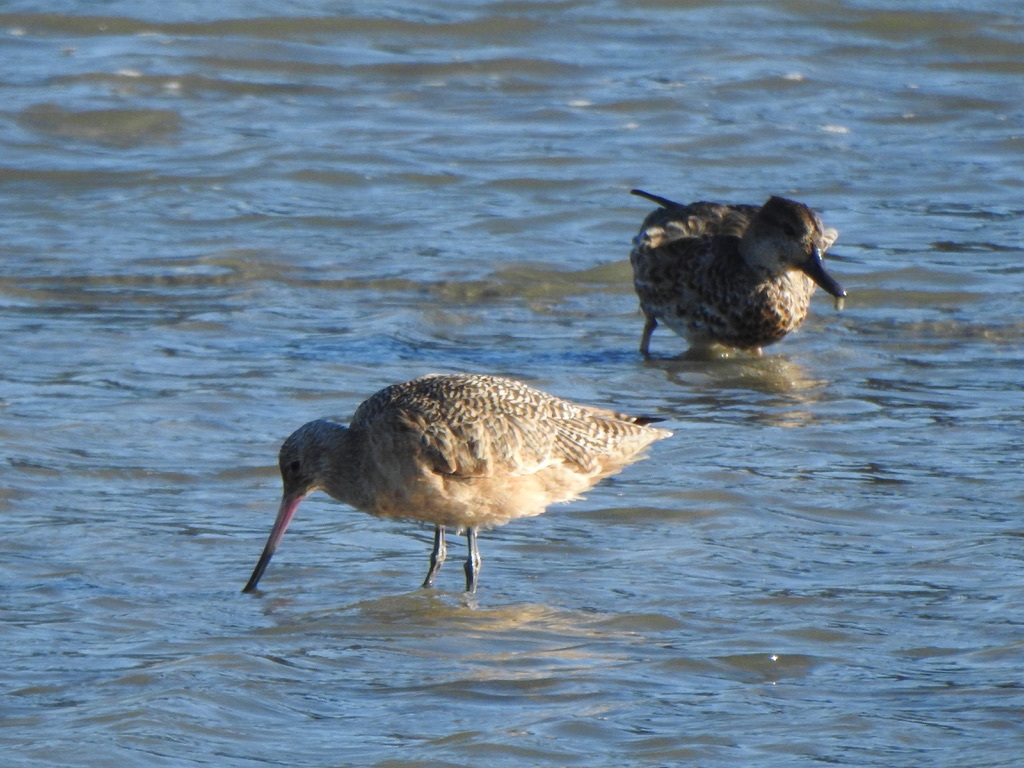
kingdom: Animalia
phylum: Chordata
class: Aves
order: Charadriiformes
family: Scolopacidae
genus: Limosa
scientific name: Limosa fedoa
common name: Marbled godwit
